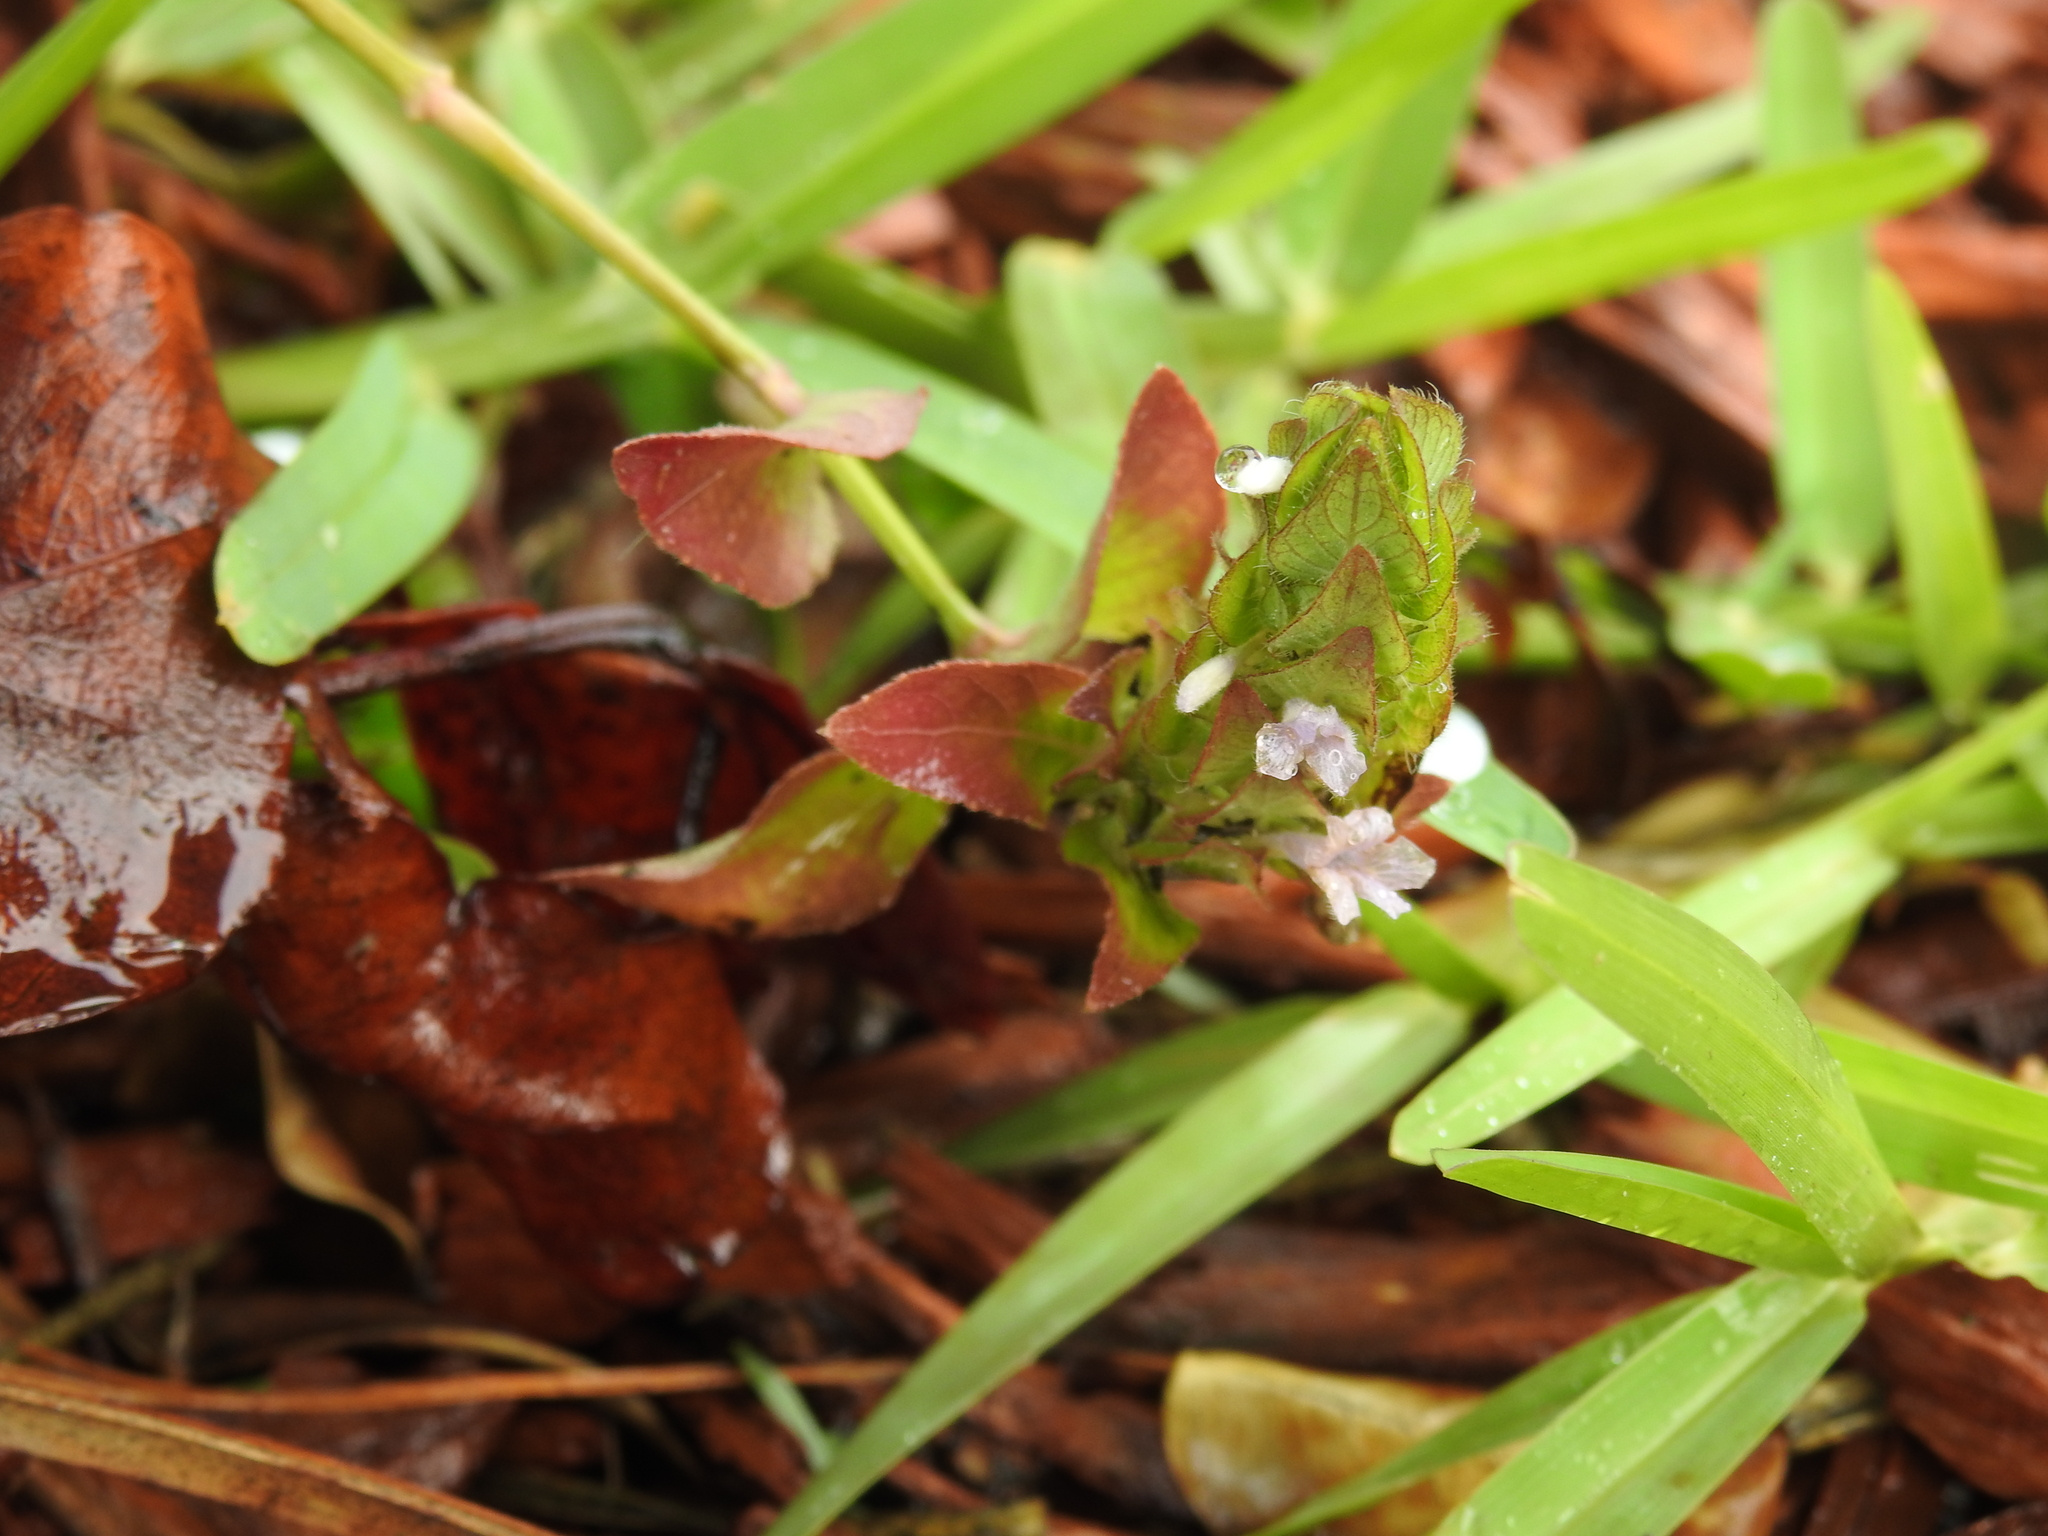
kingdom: Plantae
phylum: Tracheophyta
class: Magnoliopsida
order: Lamiales
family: Acanthaceae
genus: Ruellia
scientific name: Ruellia blechum
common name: Browne's blechum
